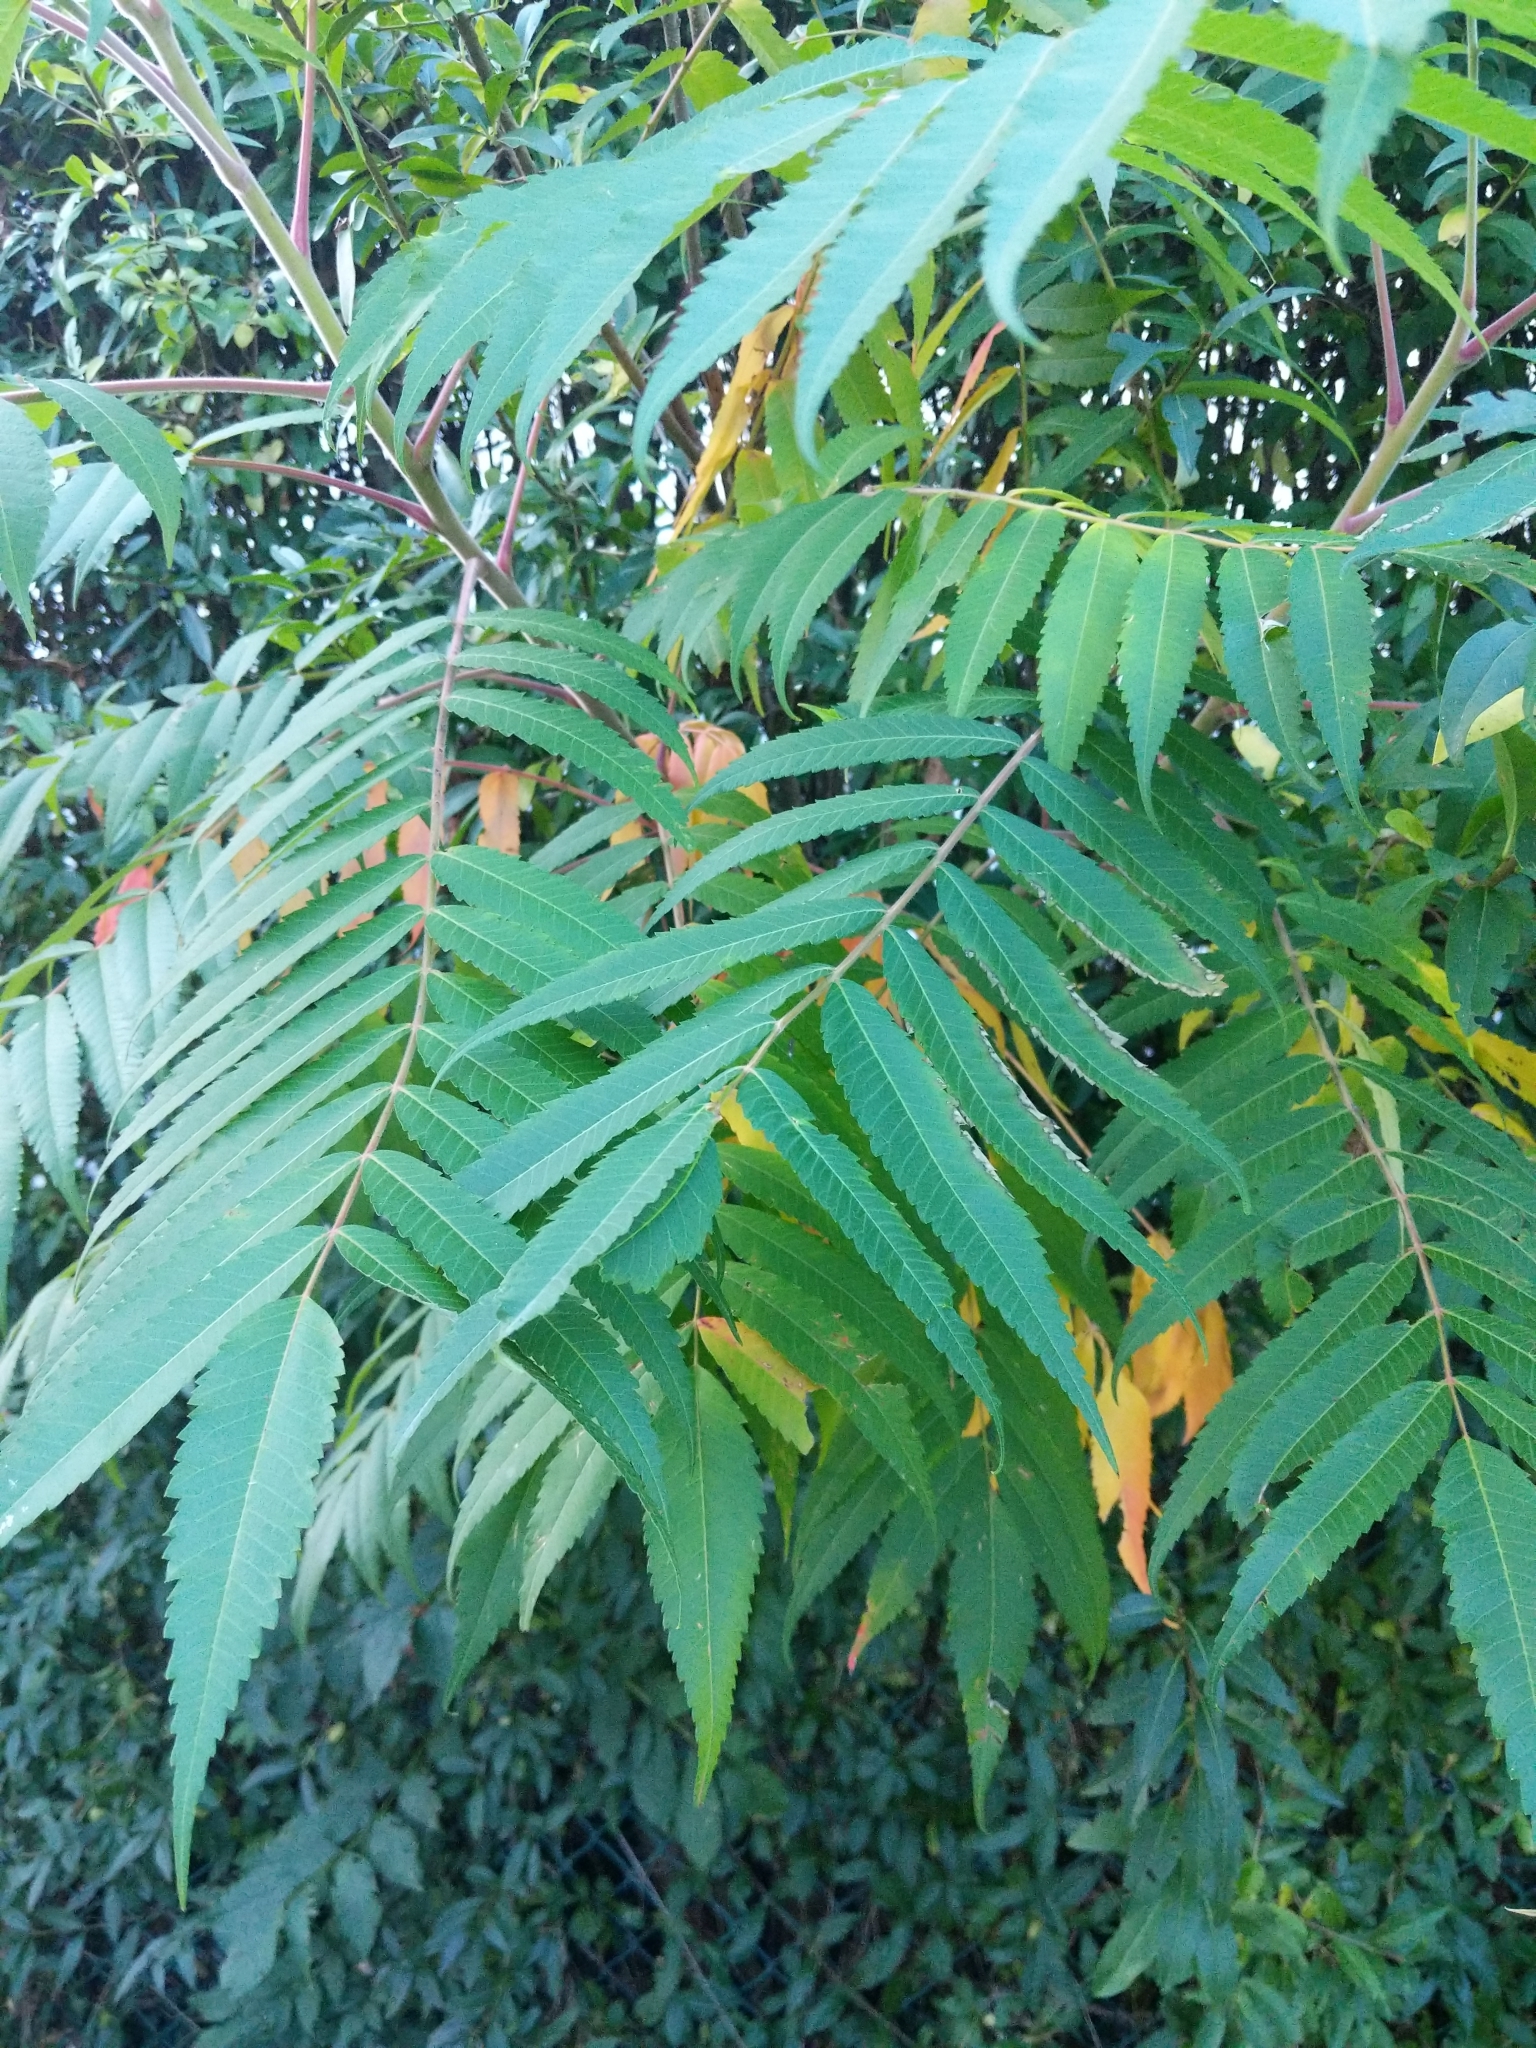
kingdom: Plantae
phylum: Tracheophyta
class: Magnoliopsida
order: Sapindales
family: Anacardiaceae
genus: Rhus
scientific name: Rhus typhina
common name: Staghorn sumac
